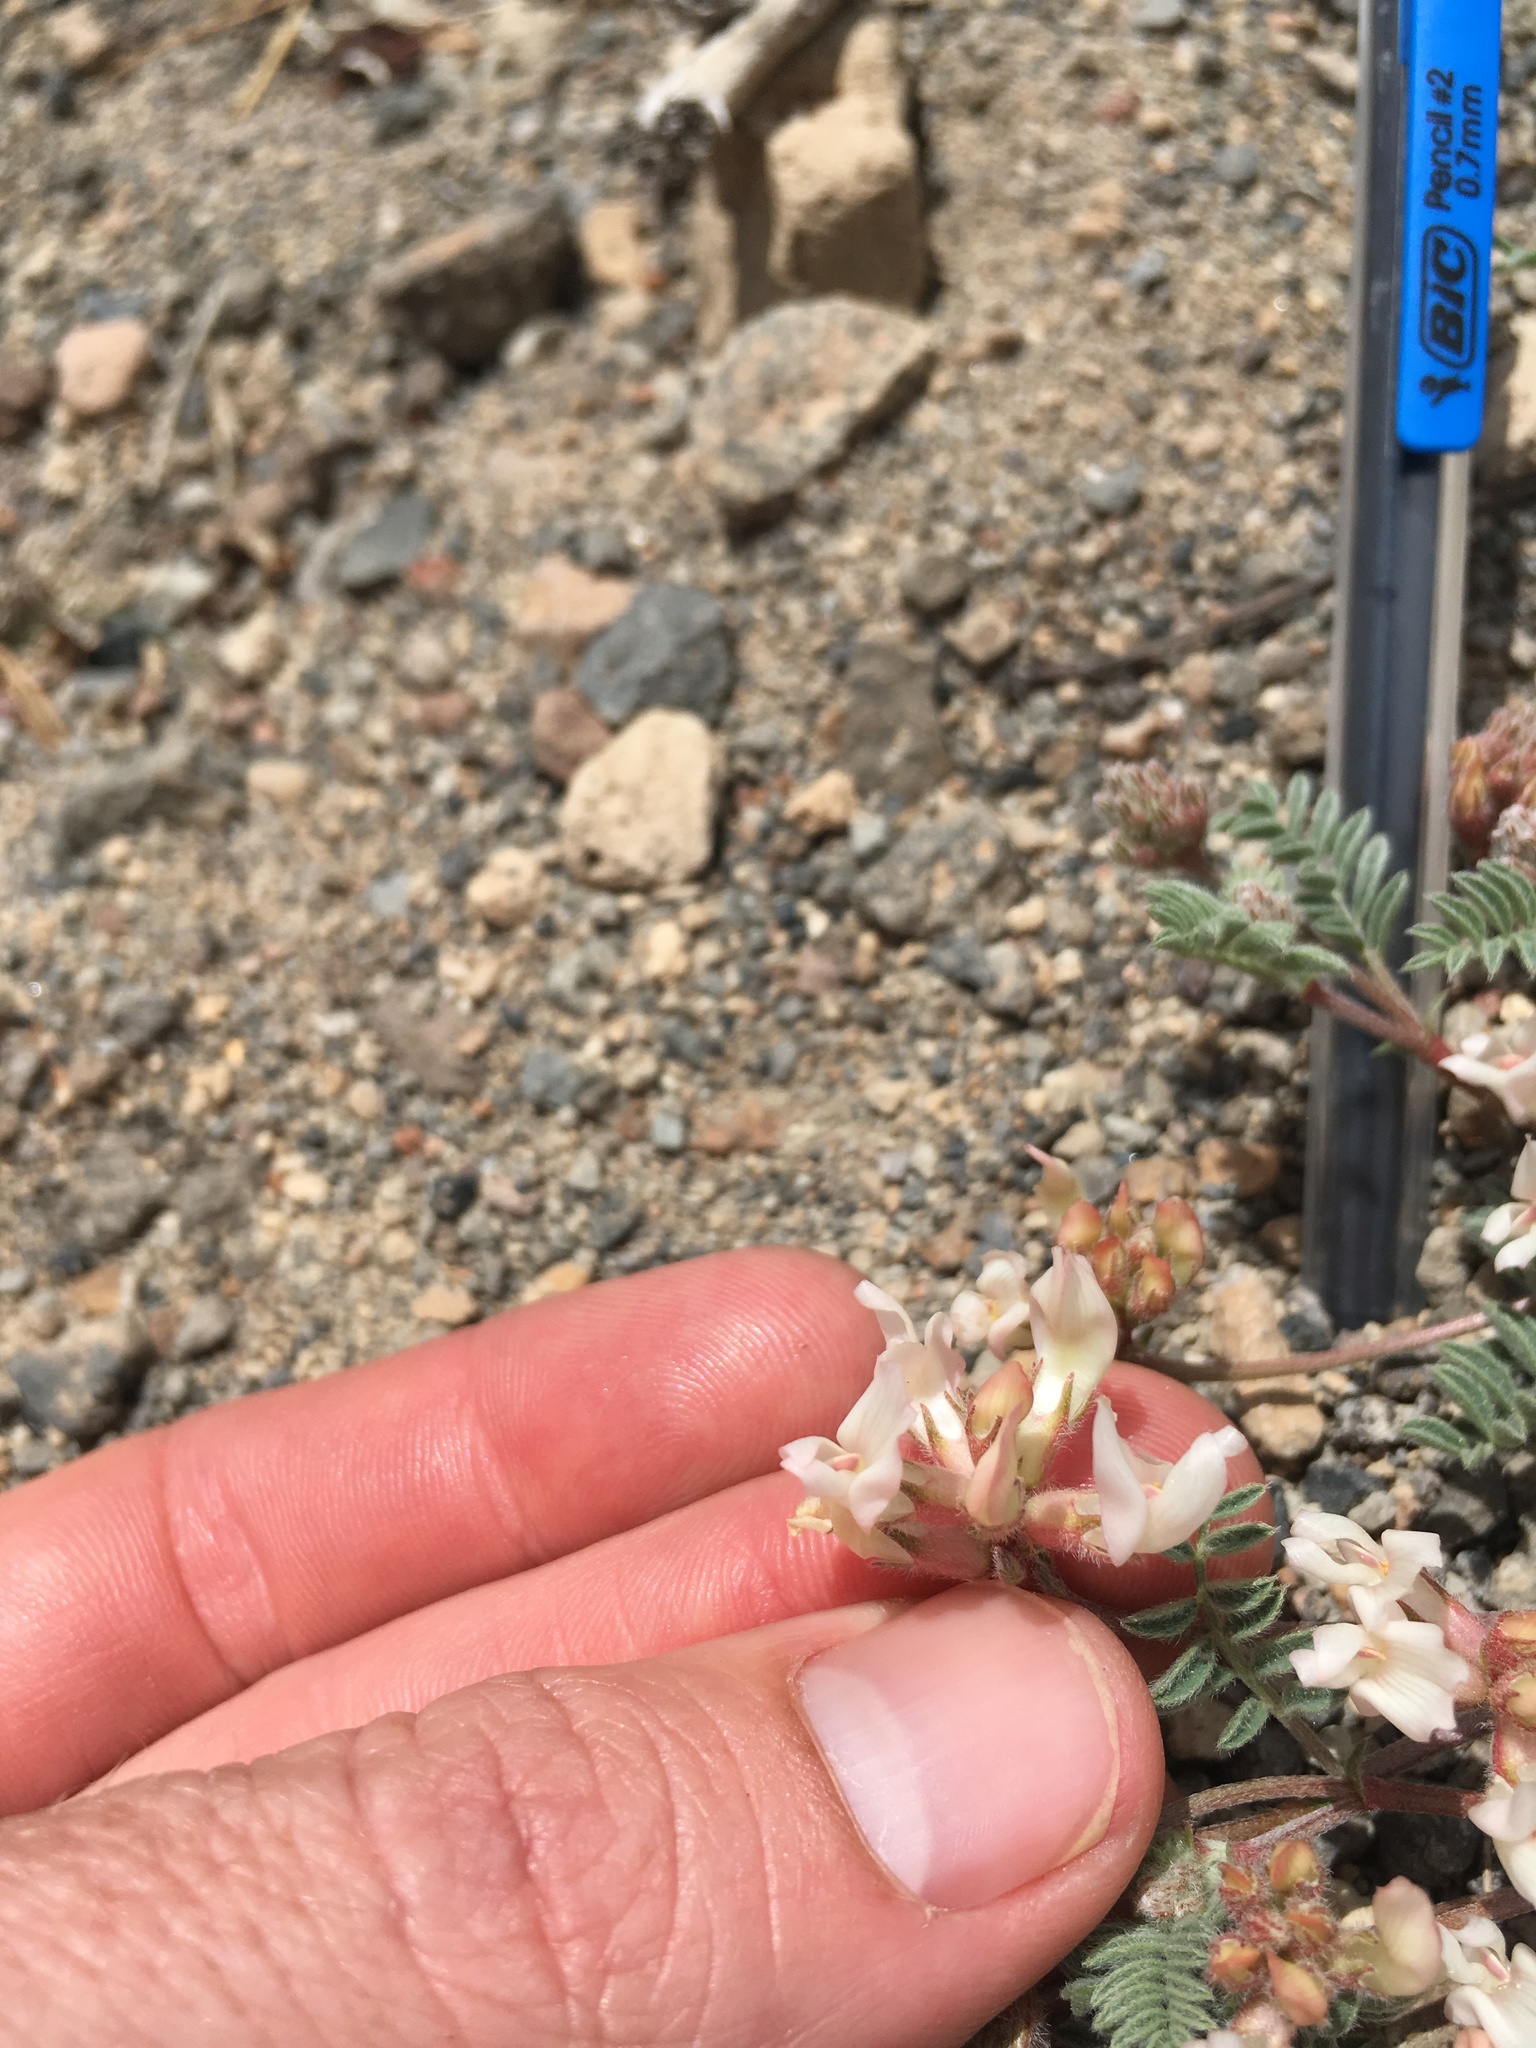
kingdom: Plantae
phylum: Tracheophyta
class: Magnoliopsida
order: Fabales
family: Fabaceae
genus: Astragalus
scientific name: Astragalus monoensis
